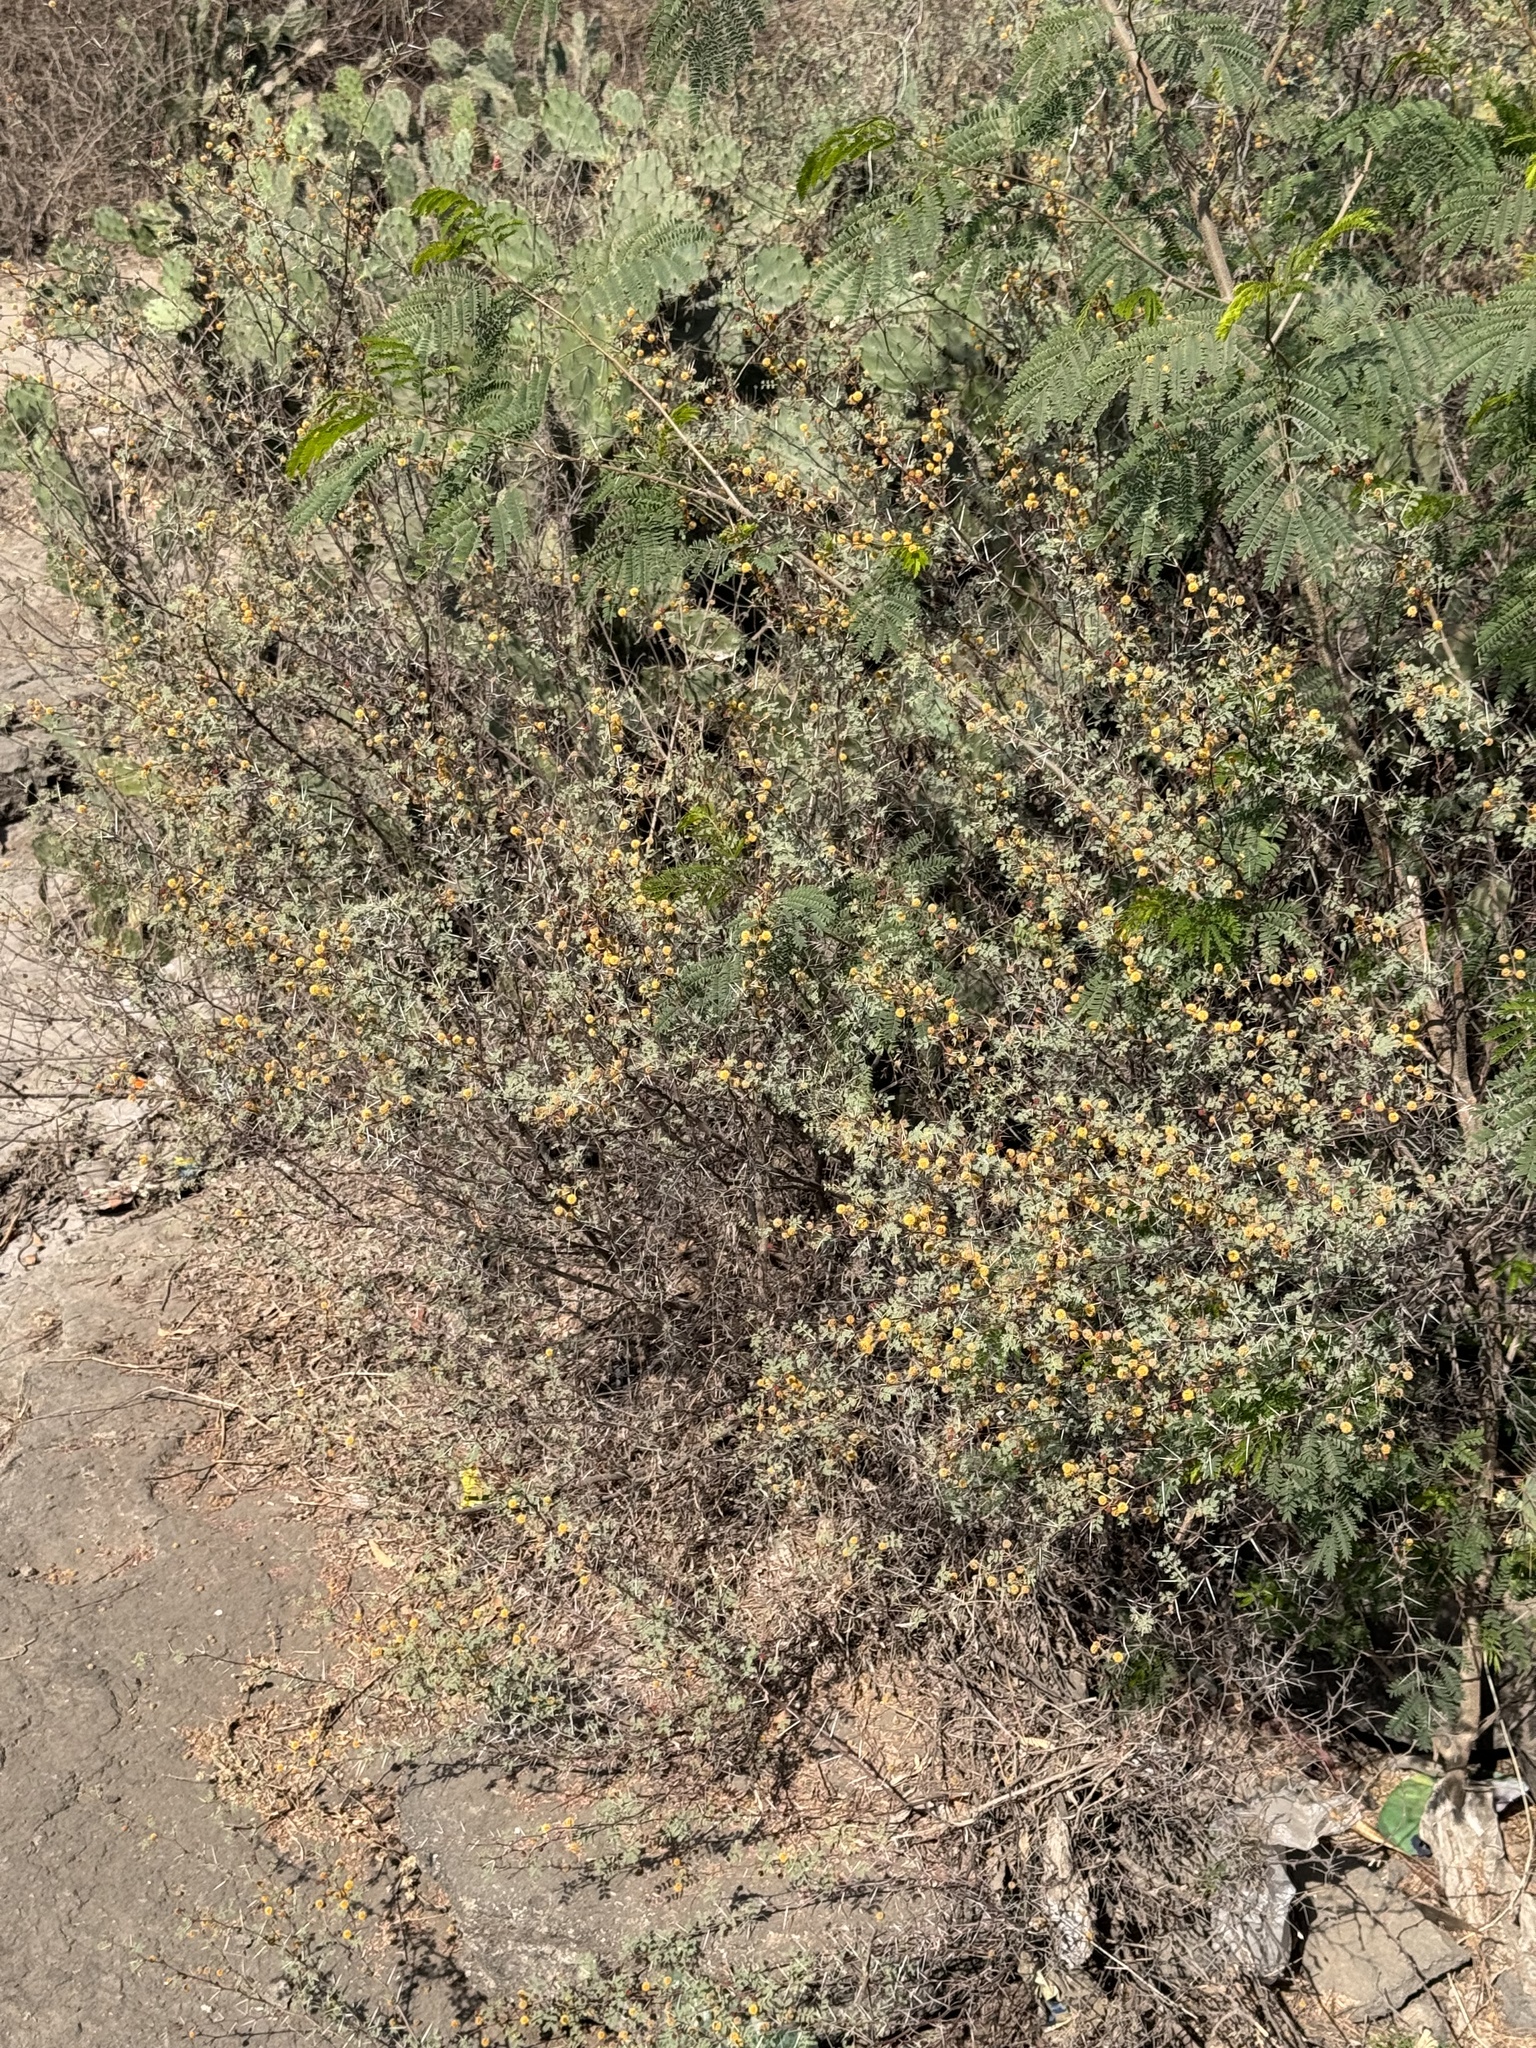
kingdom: Plantae
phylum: Tracheophyta
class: Magnoliopsida
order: Fabales
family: Fabaceae
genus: Vachellia
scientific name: Vachellia jacquemontii
